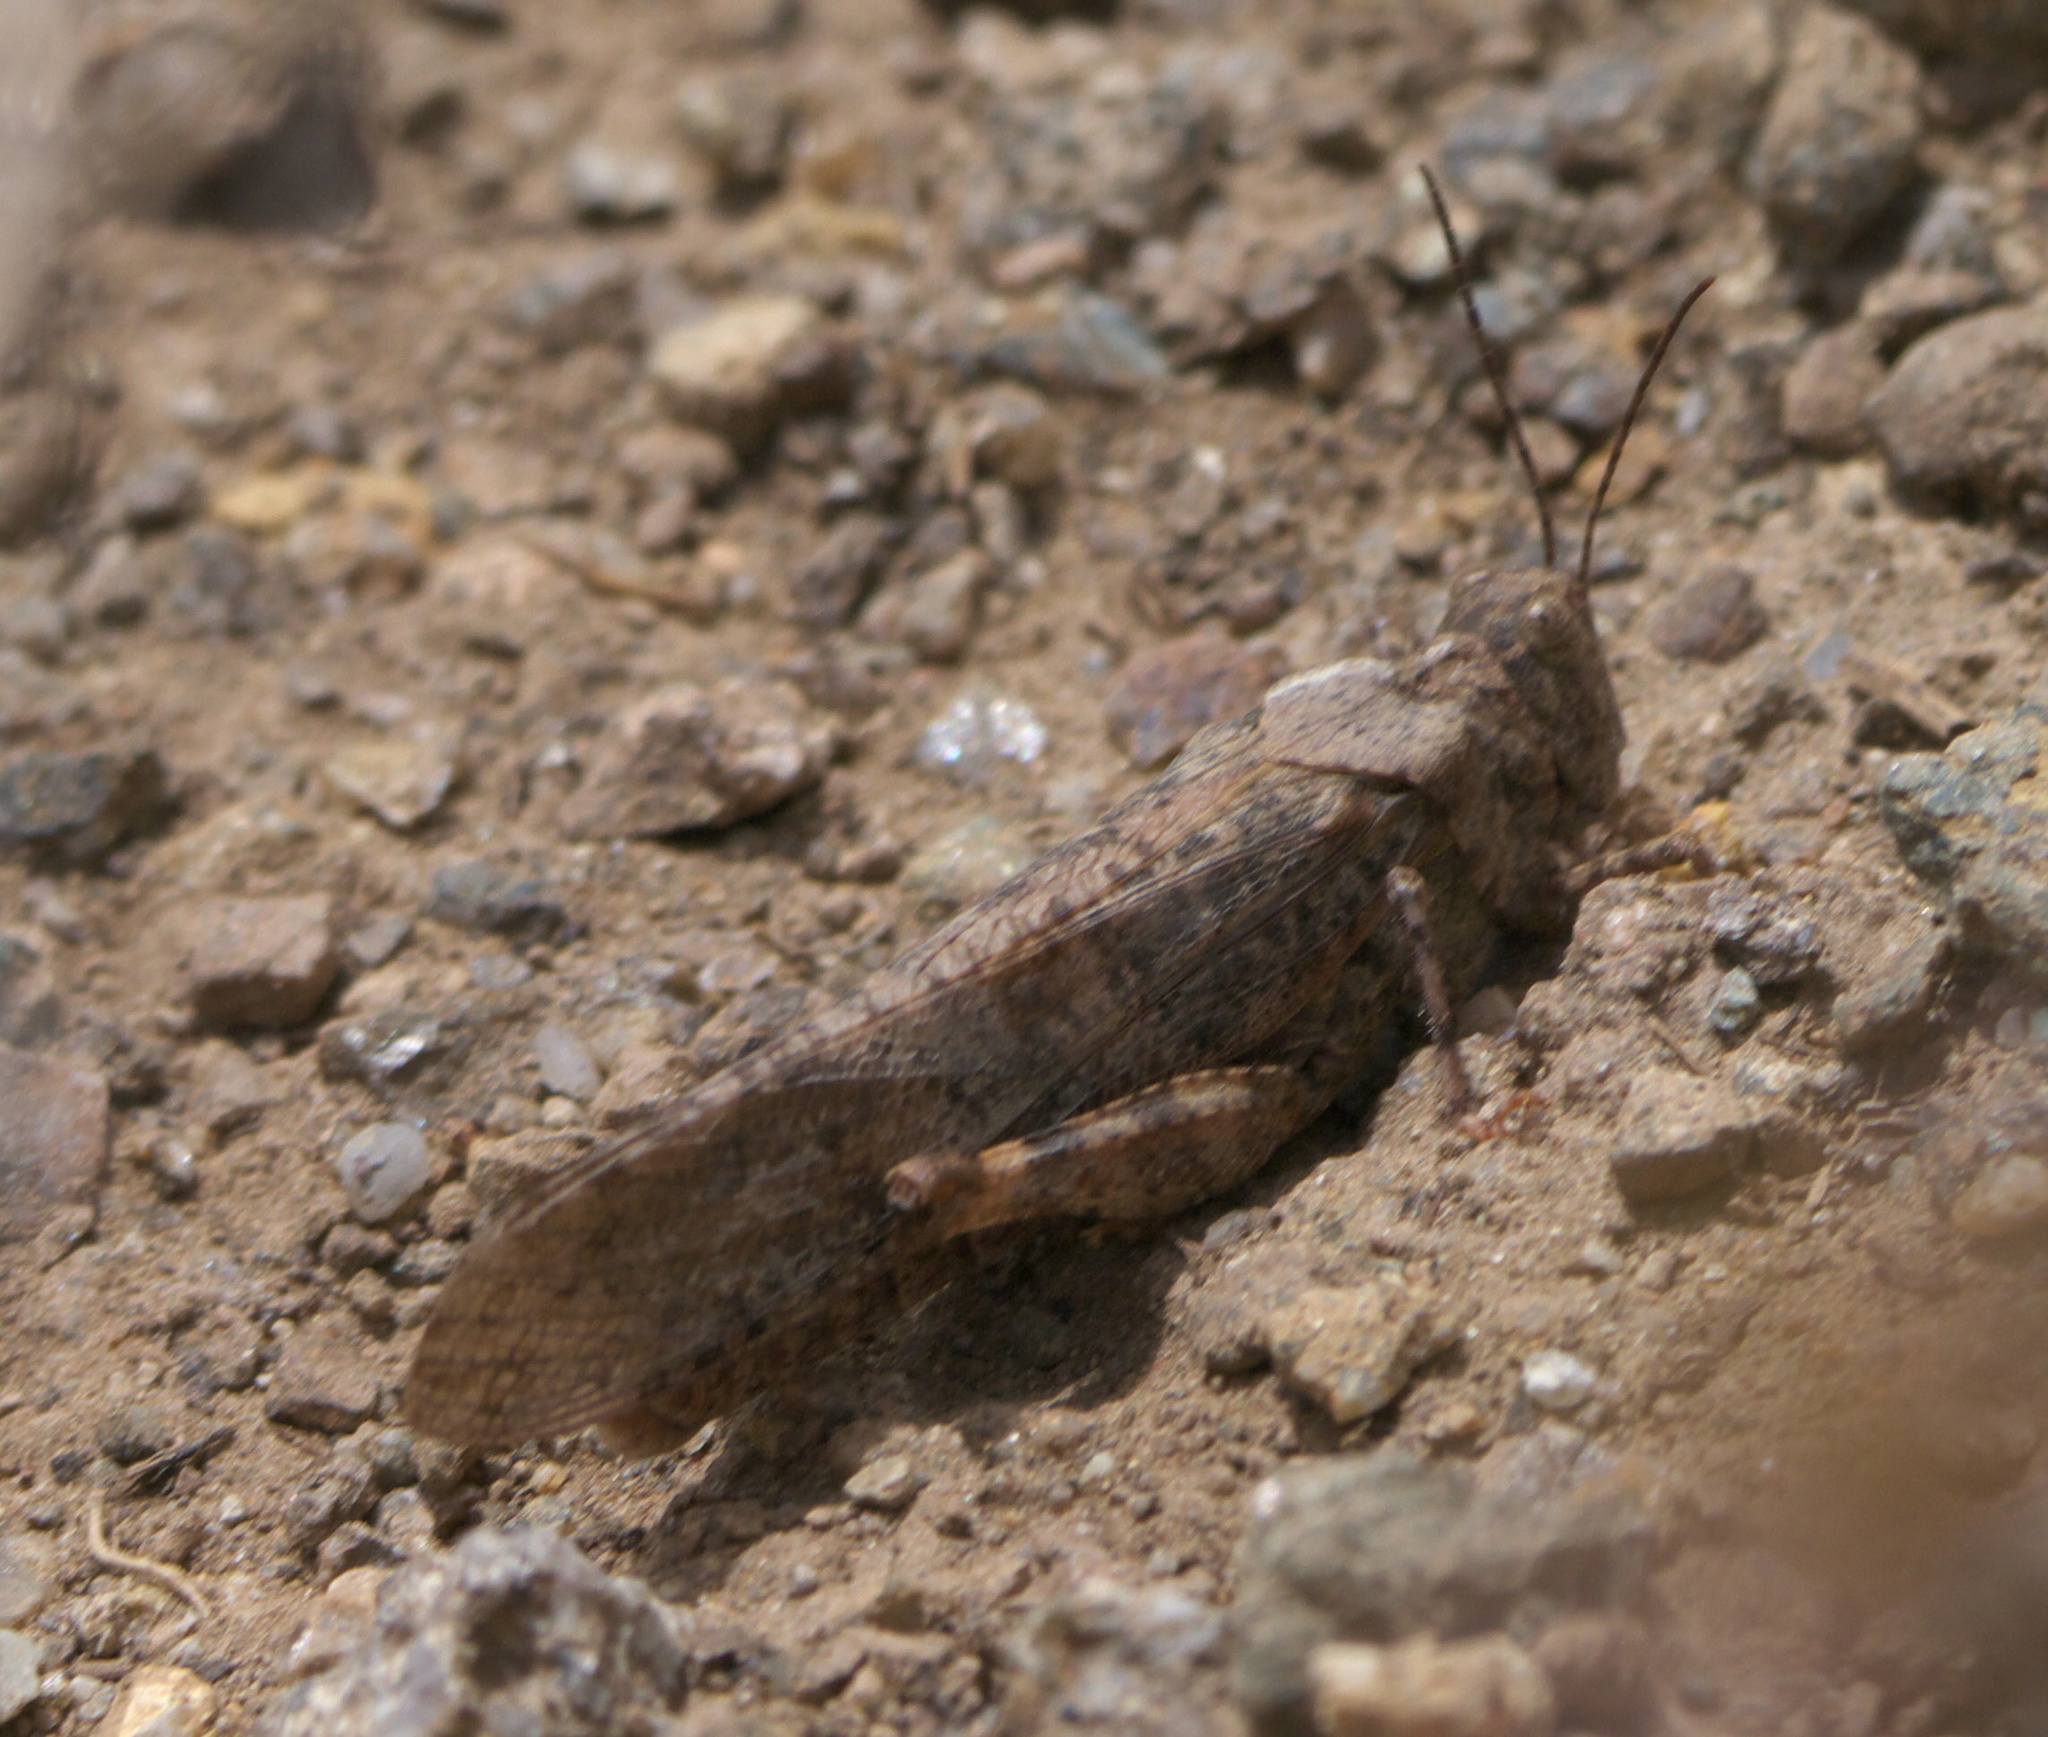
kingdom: Animalia
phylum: Arthropoda
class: Insecta
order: Orthoptera
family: Acrididae
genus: Circotettix
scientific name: Circotettix rabula
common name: Wrangler grasshopper
